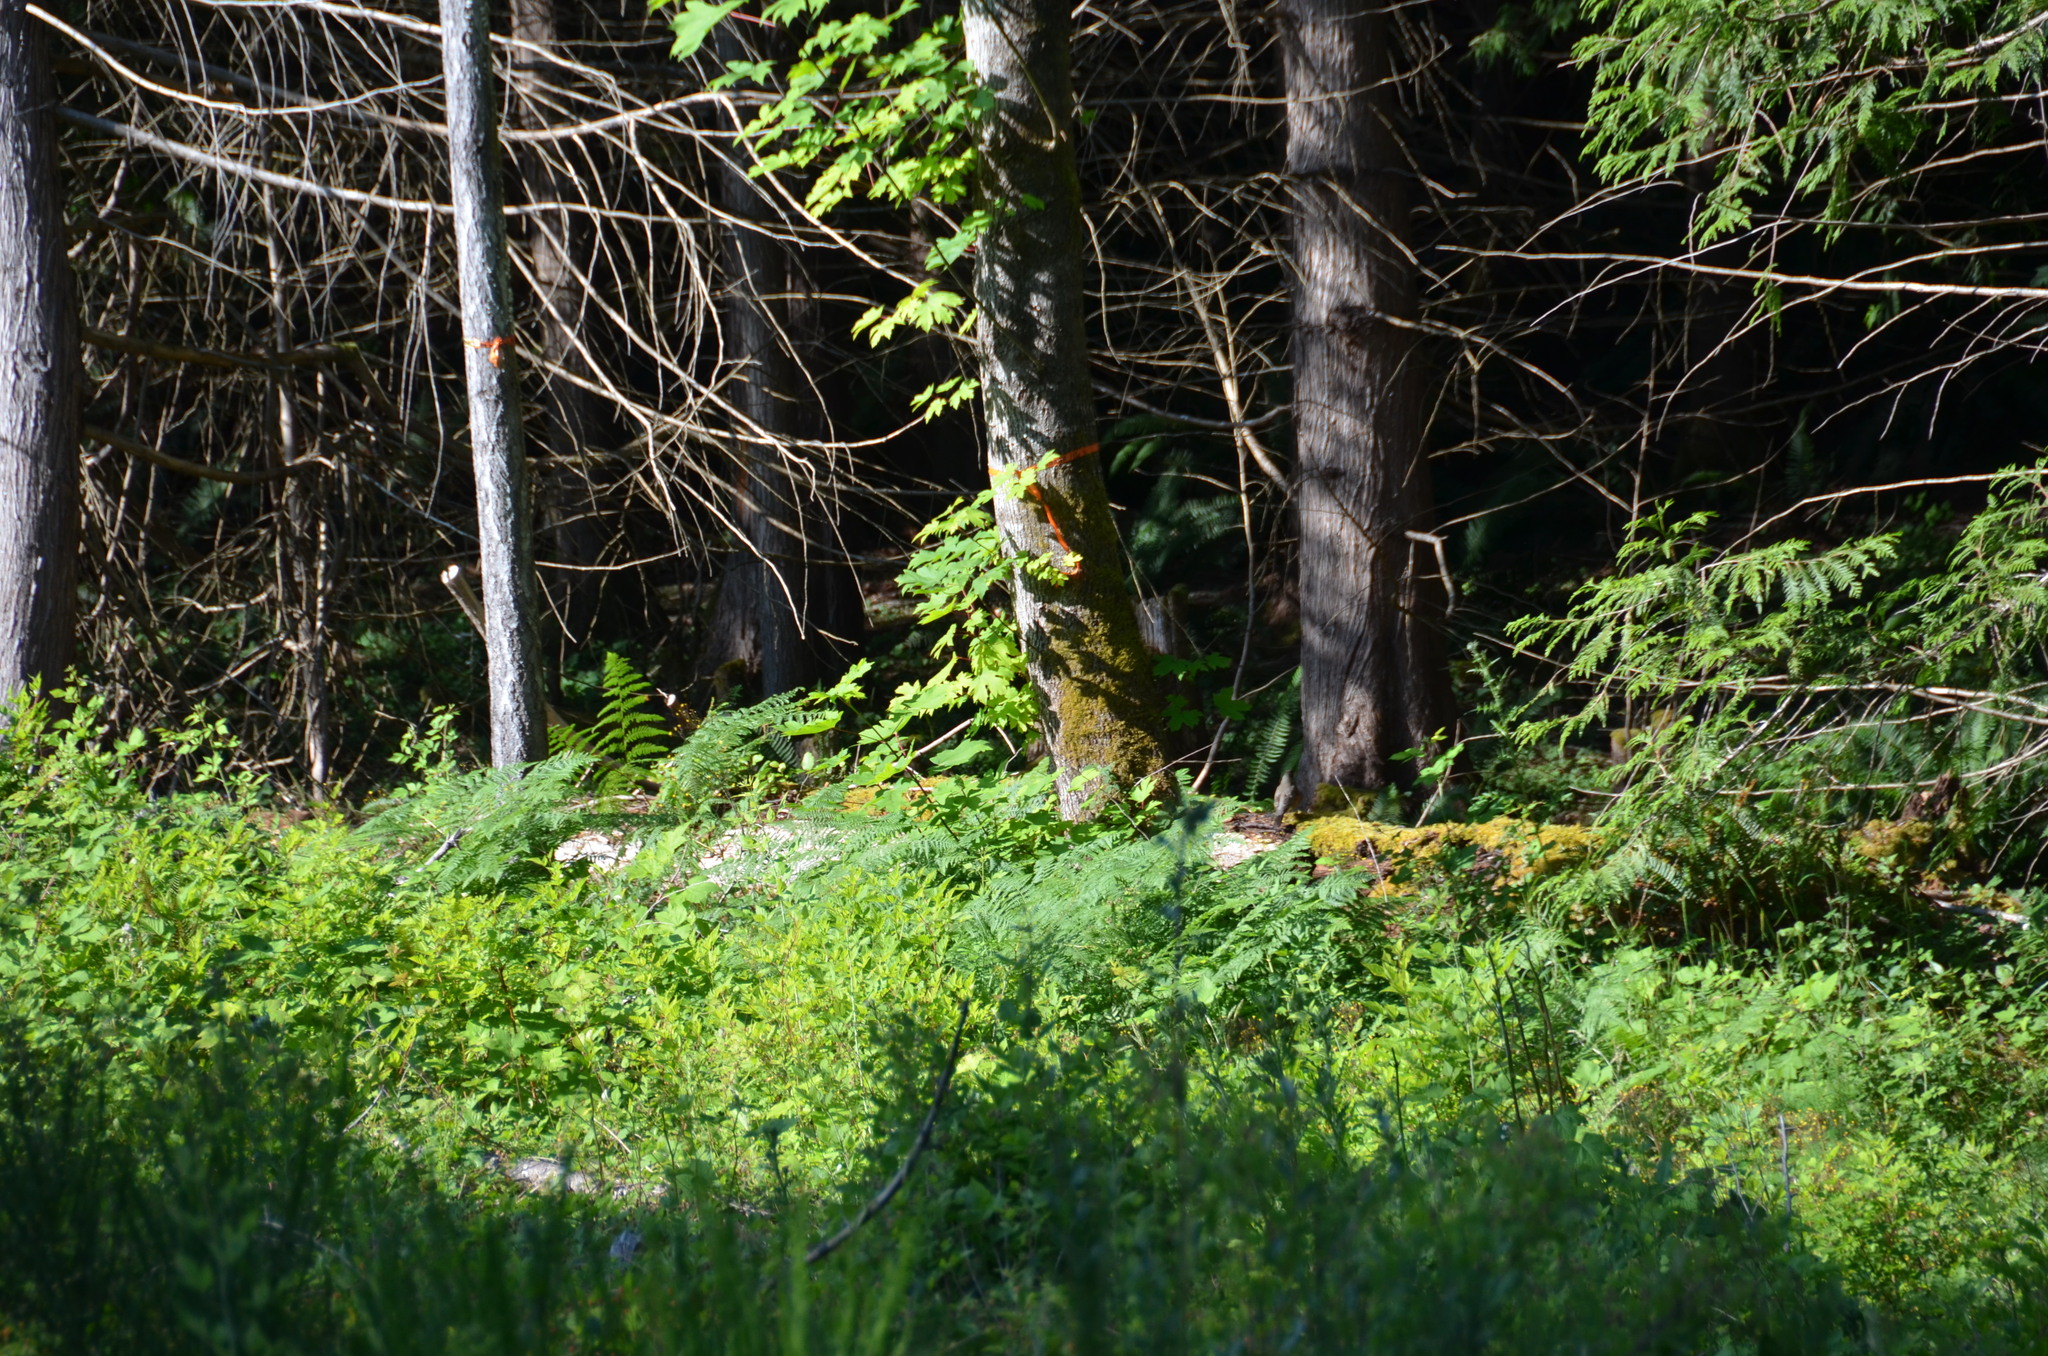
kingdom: Animalia
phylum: Chordata
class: Aves
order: Passeriformes
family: Turdidae
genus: Turdus
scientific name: Turdus migratorius
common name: American robin
